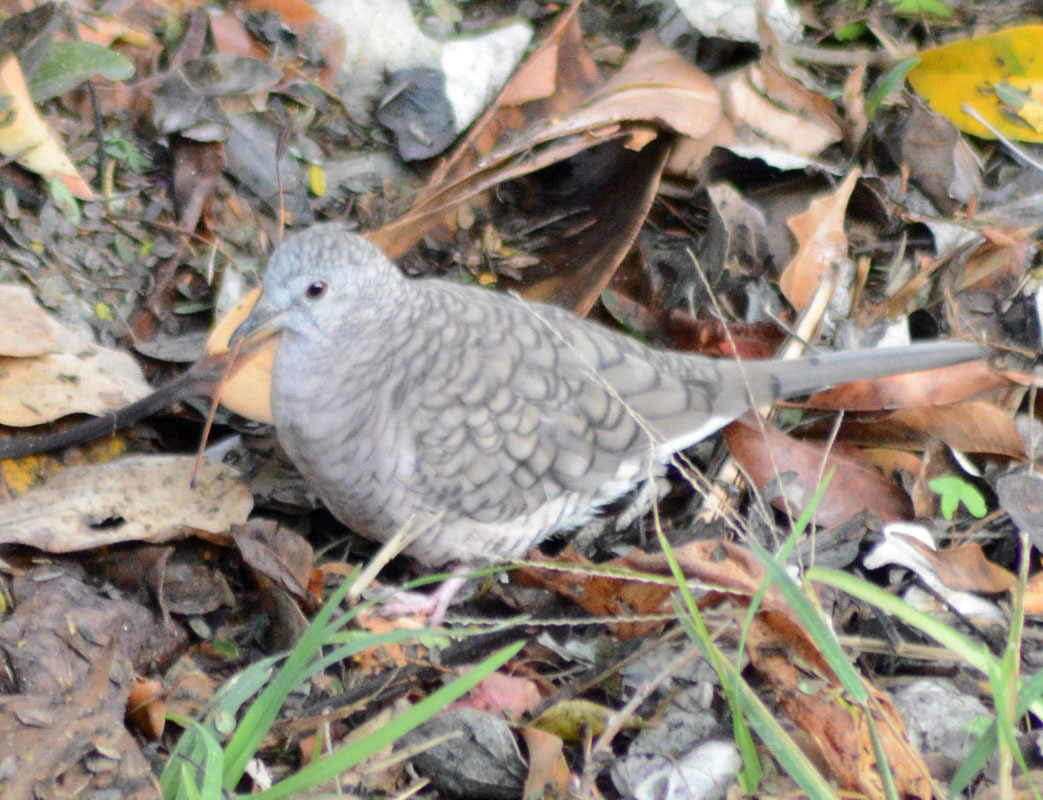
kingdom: Animalia
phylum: Chordata
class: Aves
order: Columbiformes
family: Columbidae
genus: Columbina
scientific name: Columbina inca
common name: Inca dove
